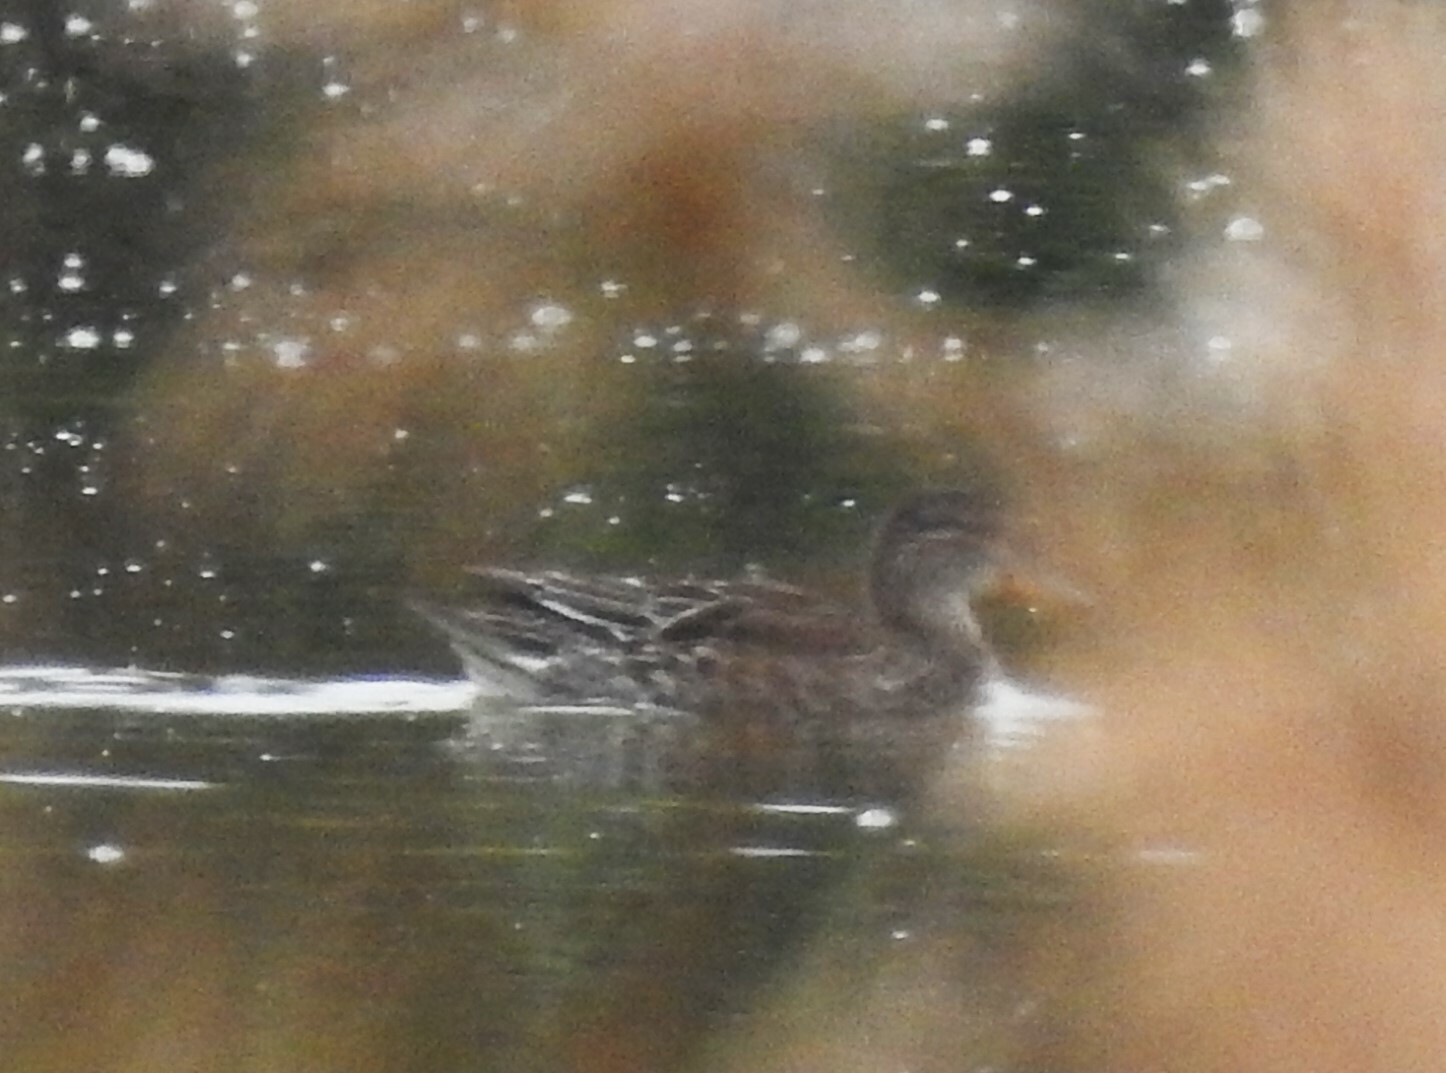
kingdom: Animalia
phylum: Chordata
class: Aves
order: Anseriformes
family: Anatidae
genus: Anas
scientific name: Anas crecca
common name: Eurasian teal
